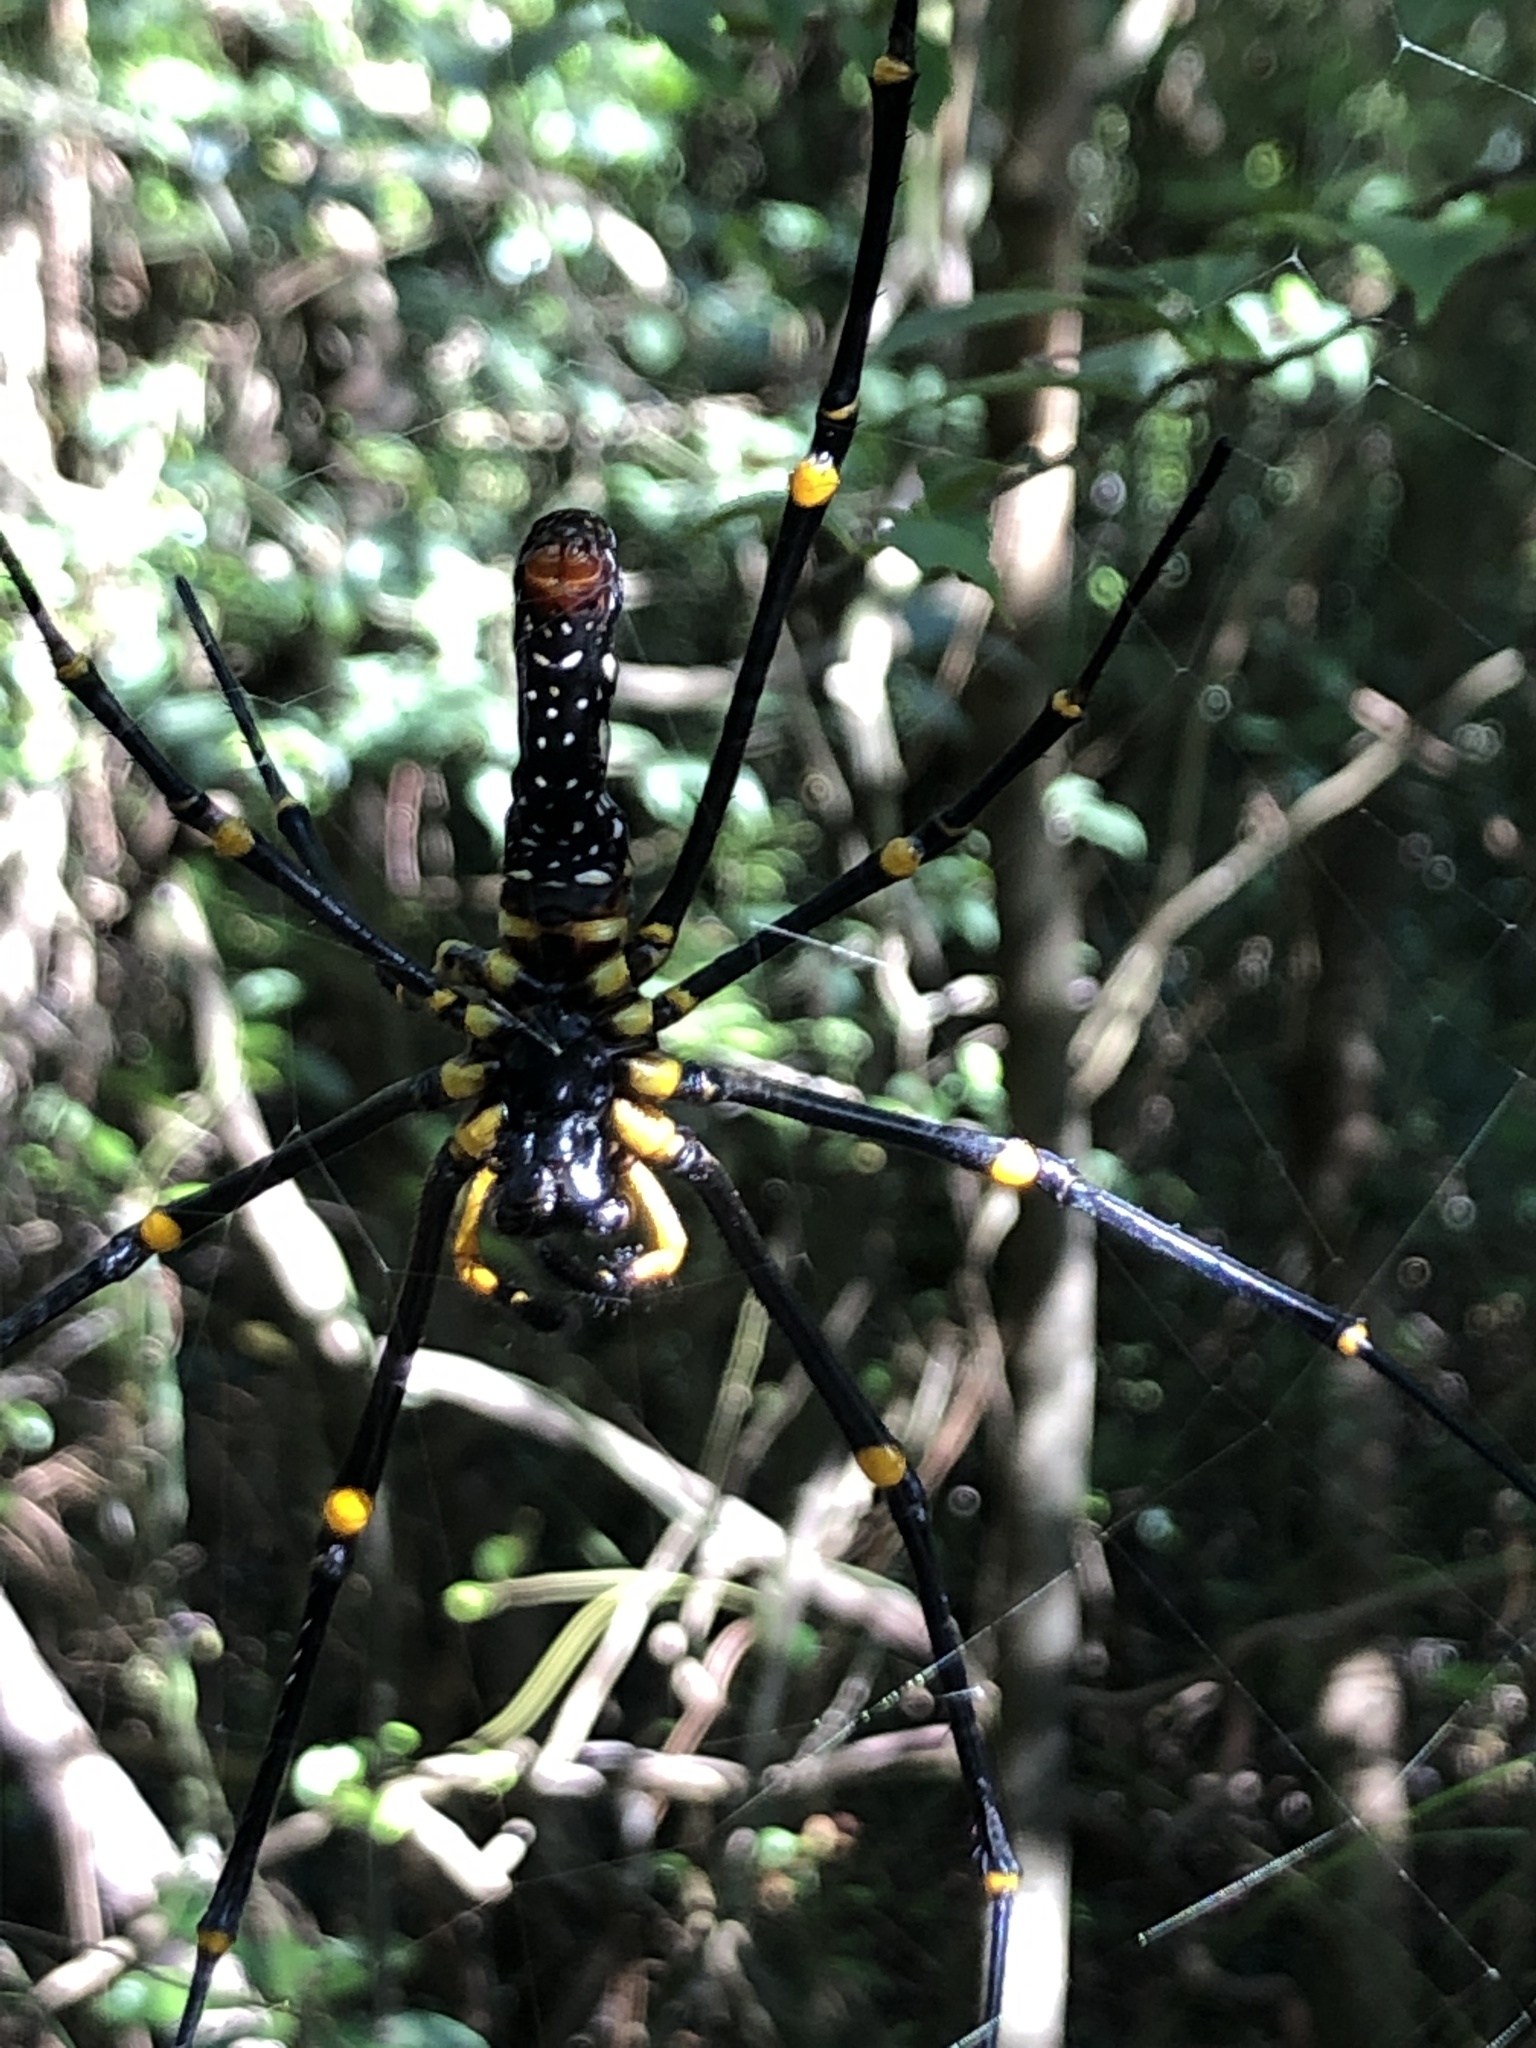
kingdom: Animalia
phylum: Arthropoda
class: Arachnida
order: Araneae
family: Araneidae
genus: Nephila
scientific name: Nephila pilipes
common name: Giant golden orb weaver
